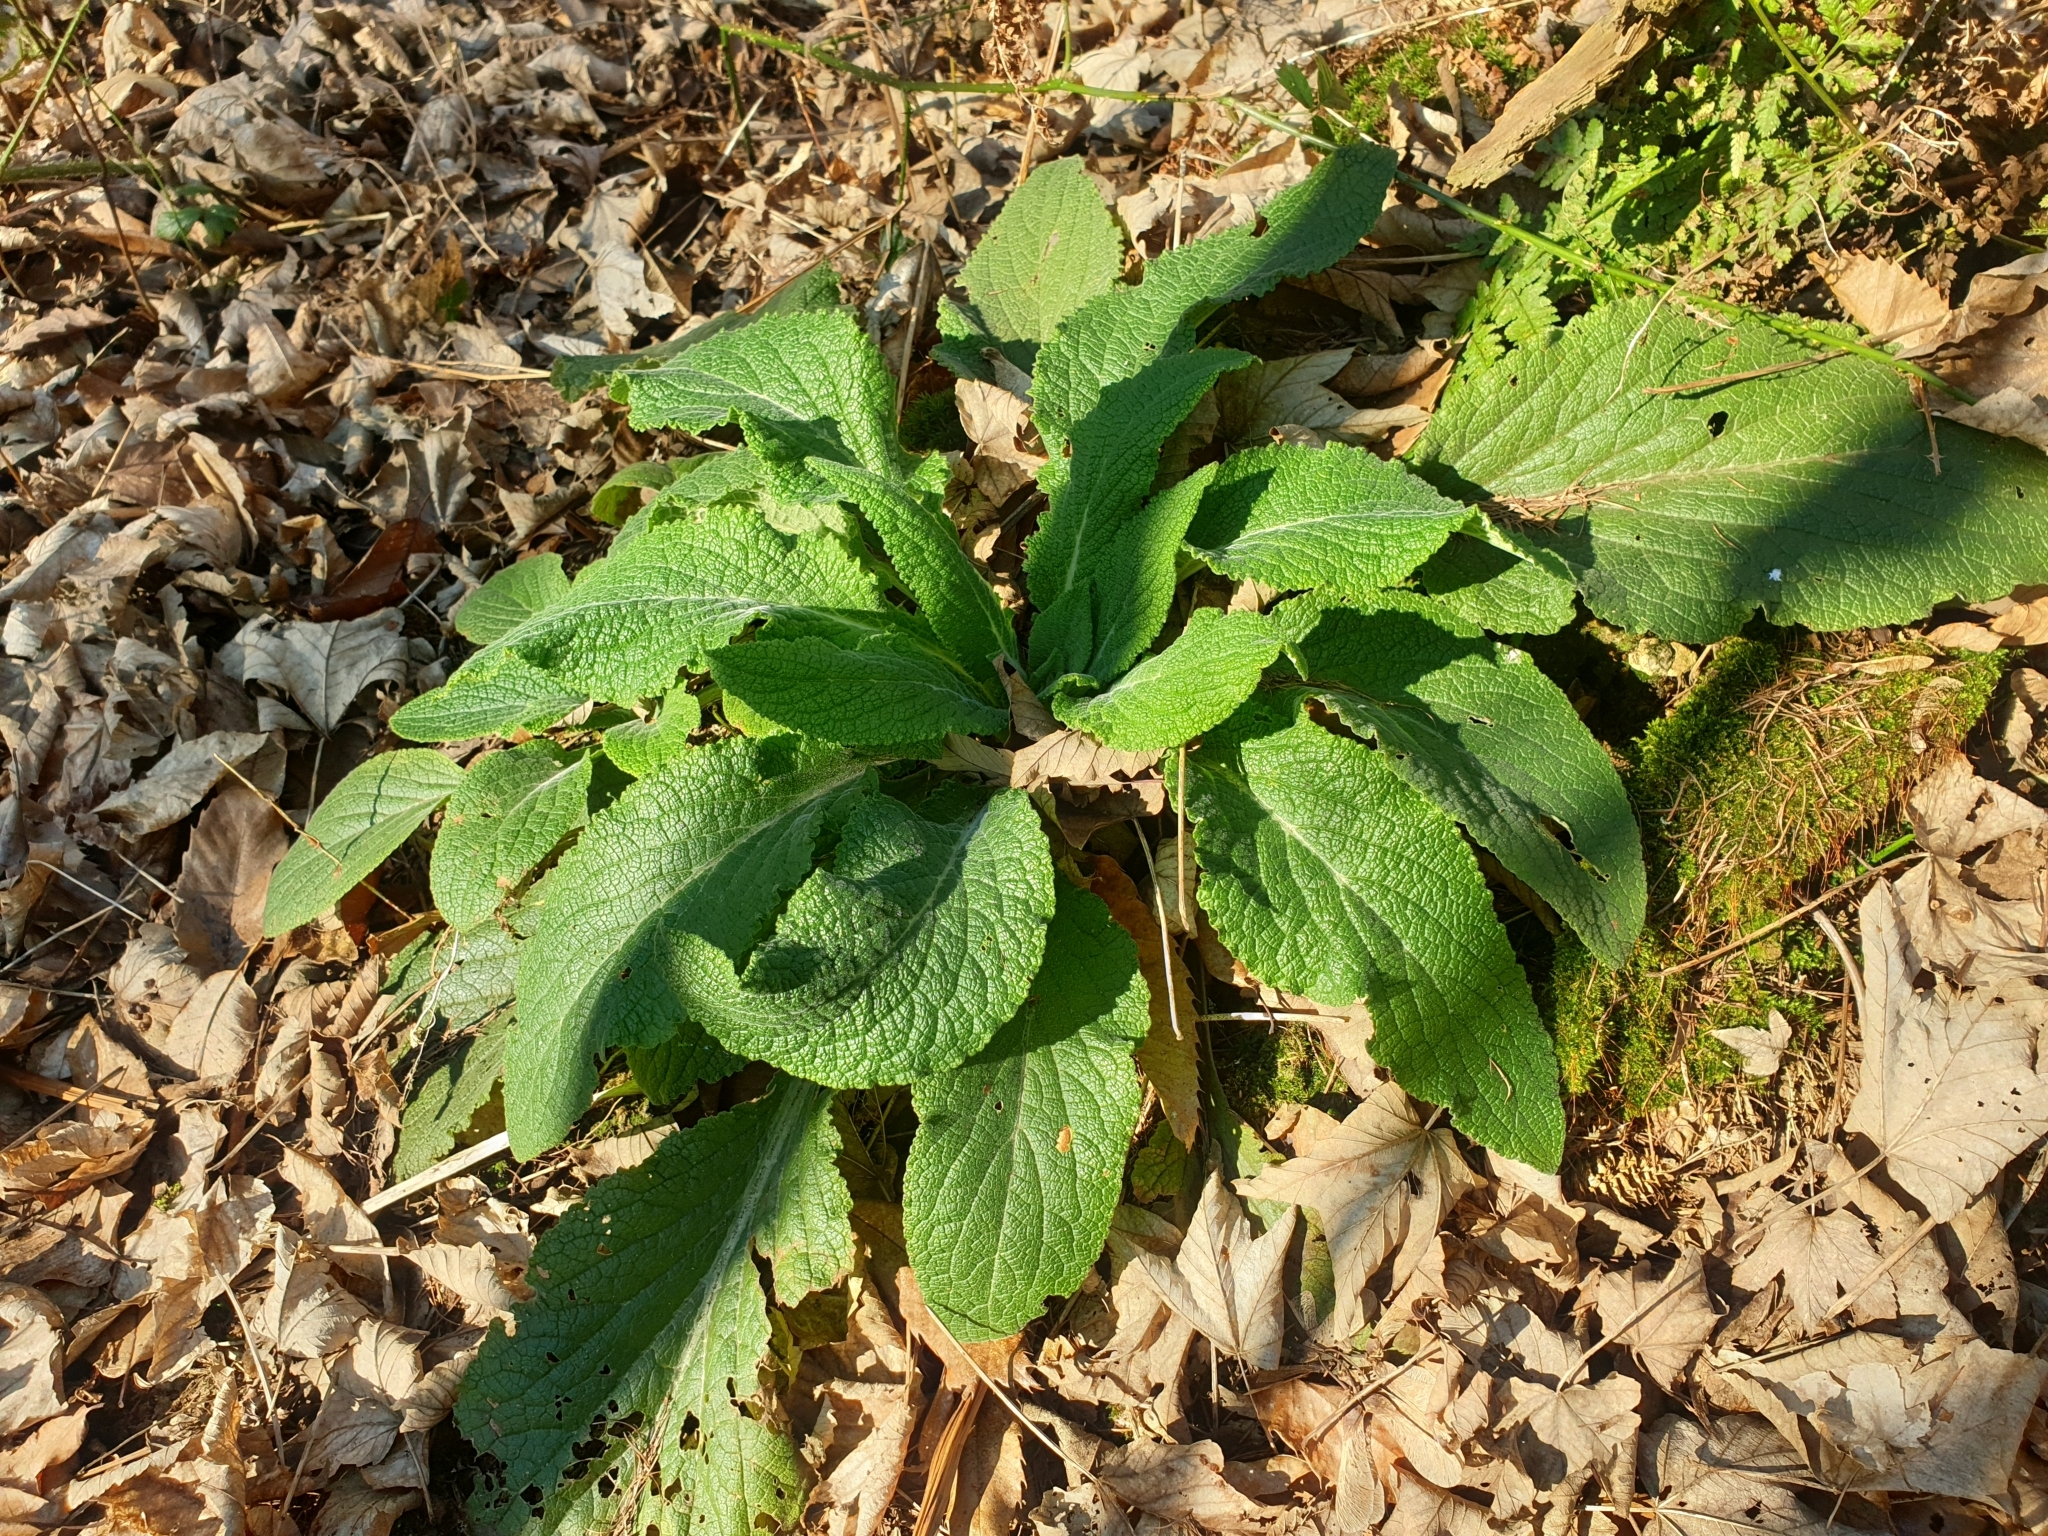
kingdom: Plantae
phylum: Tracheophyta
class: Magnoliopsida
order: Lamiales
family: Plantaginaceae
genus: Digitalis
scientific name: Digitalis purpurea
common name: Foxglove
